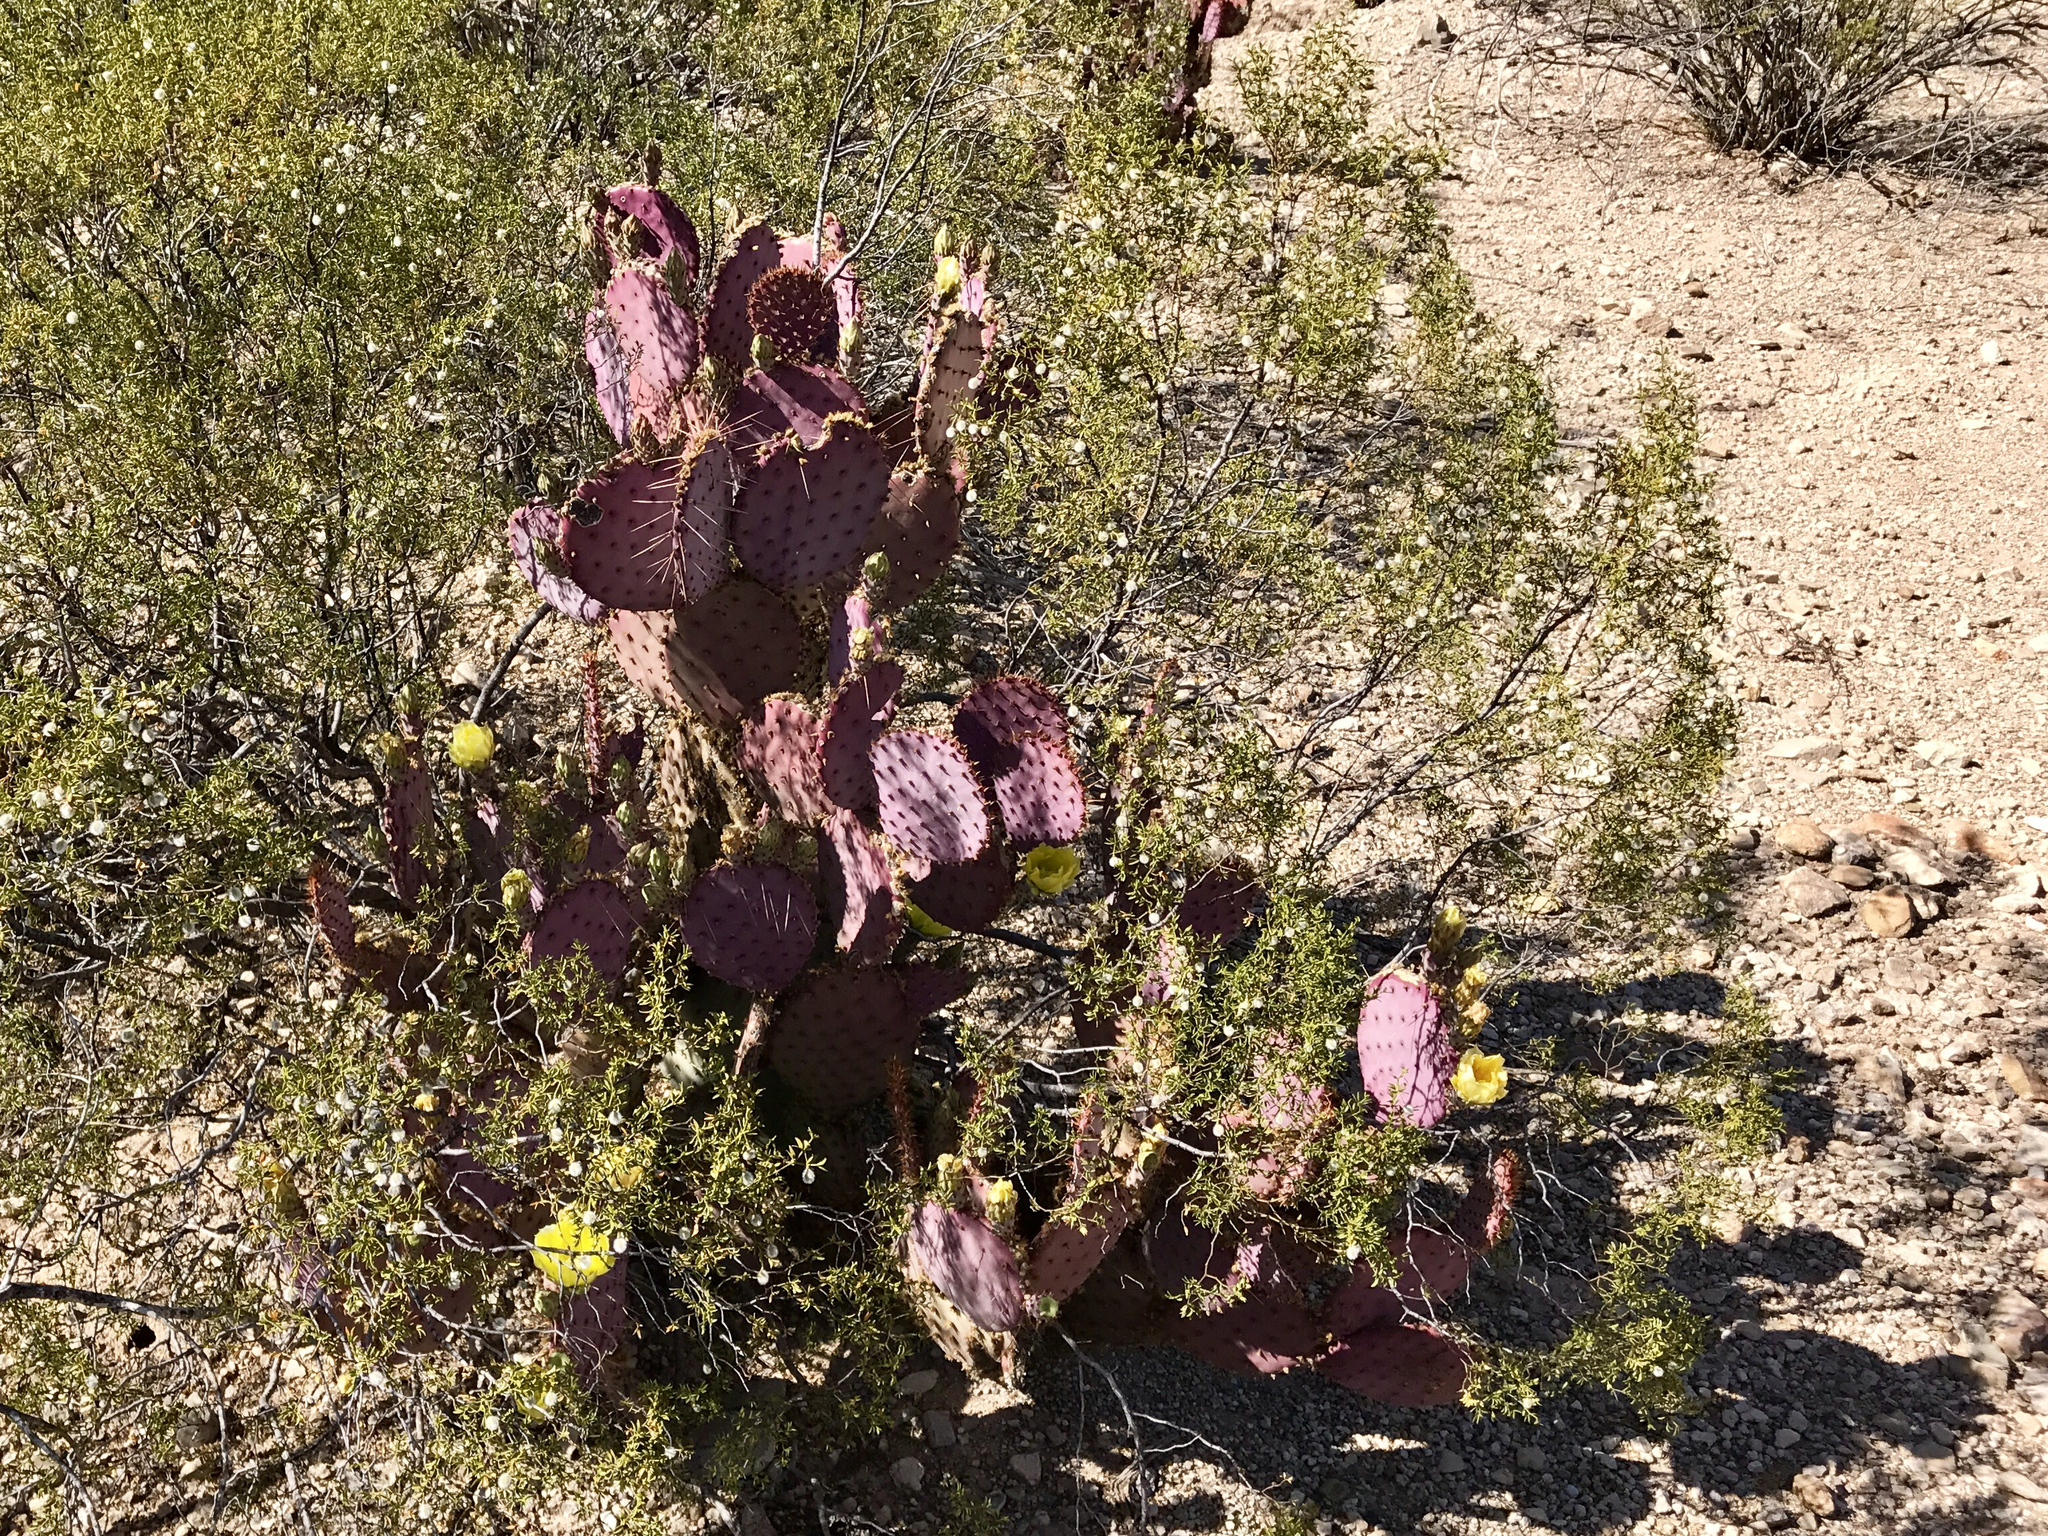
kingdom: Plantae
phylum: Tracheophyta
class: Magnoliopsida
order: Caryophyllales
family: Cactaceae
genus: Opuntia
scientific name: Opuntia gosseliniana
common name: Violet prickly-pear
